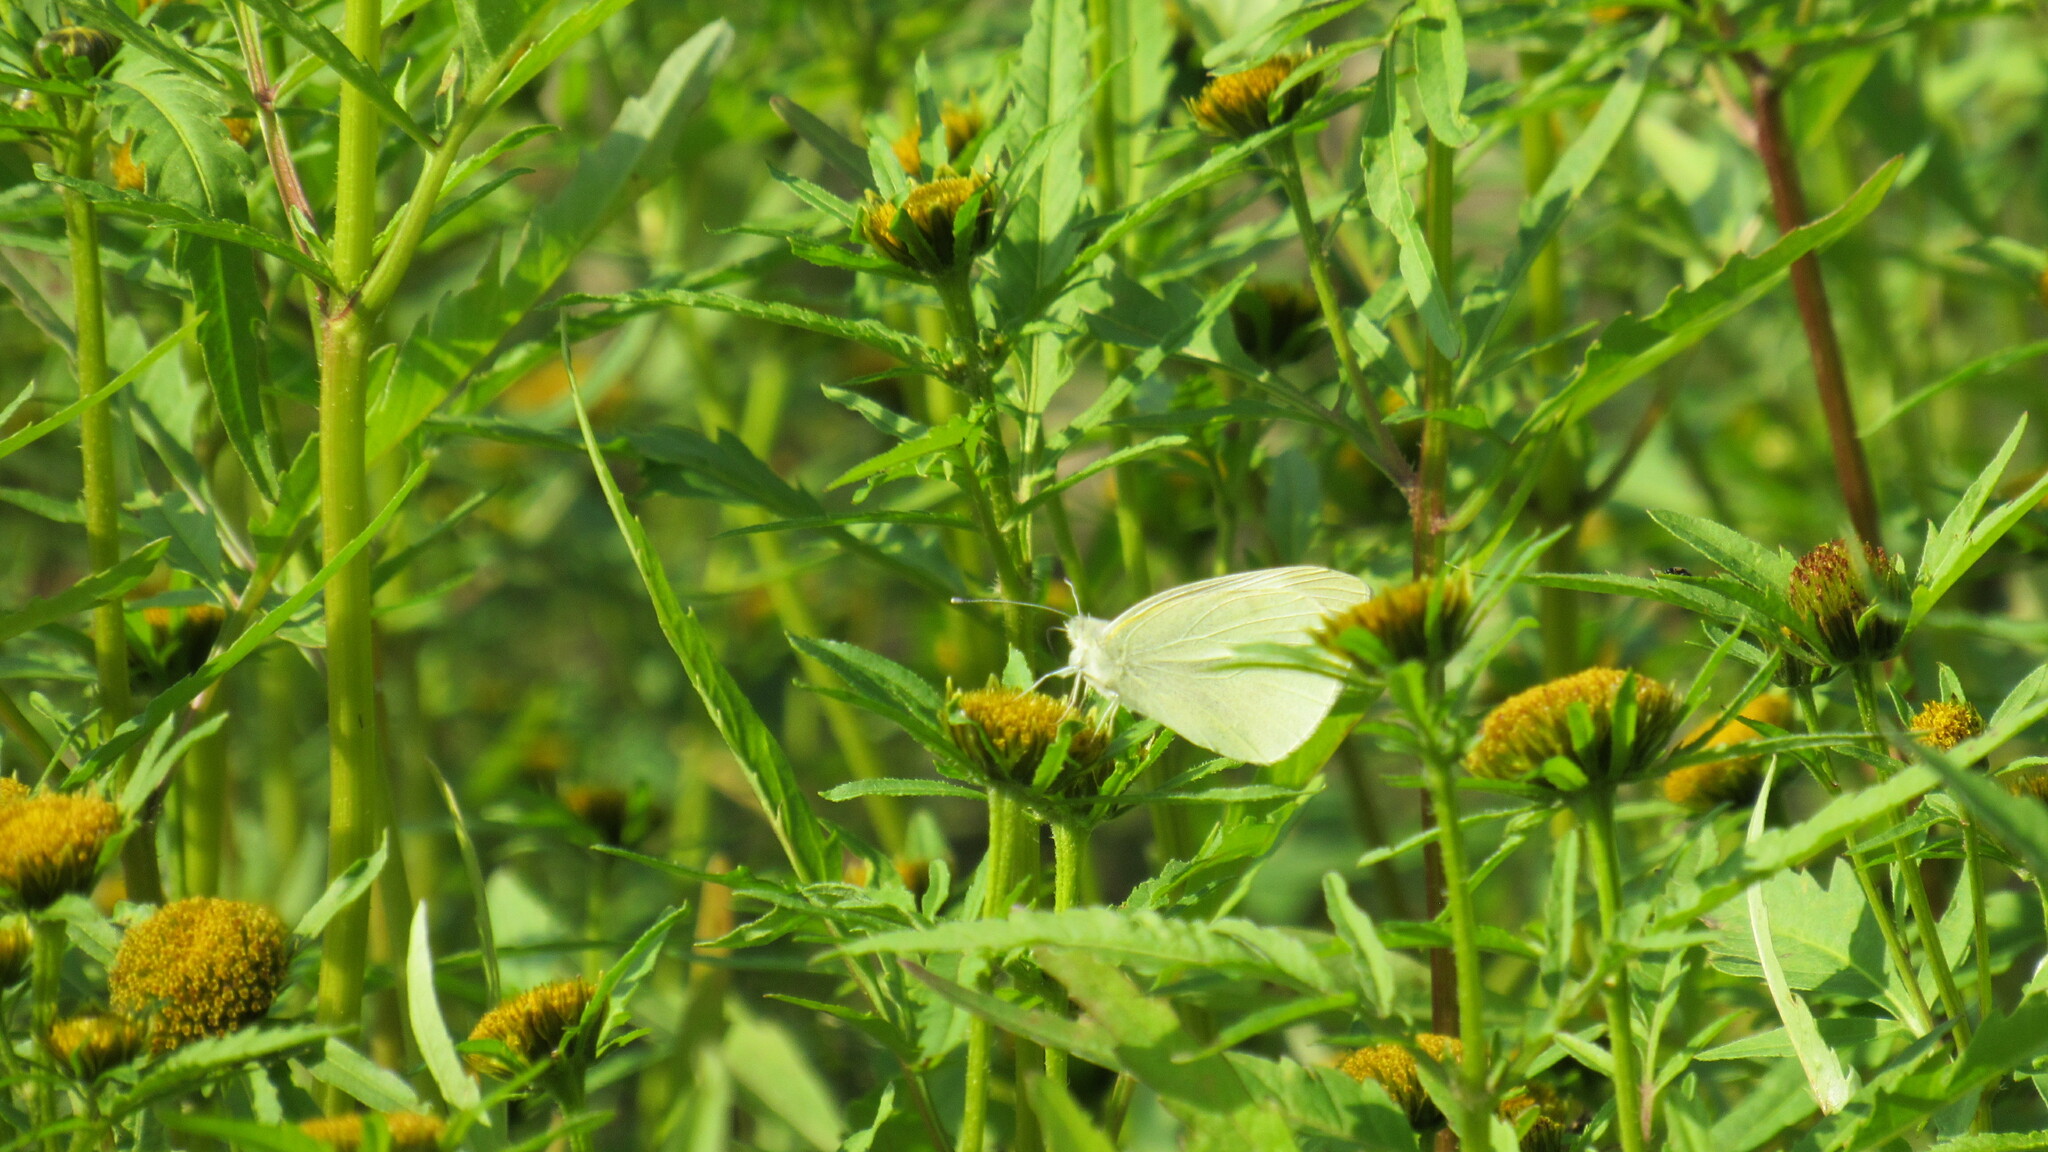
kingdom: Animalia
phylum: Arthropoda
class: Insecta
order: Lepidoptera
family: Pieridae
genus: Pieris
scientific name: Pieris rapae
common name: Small white
